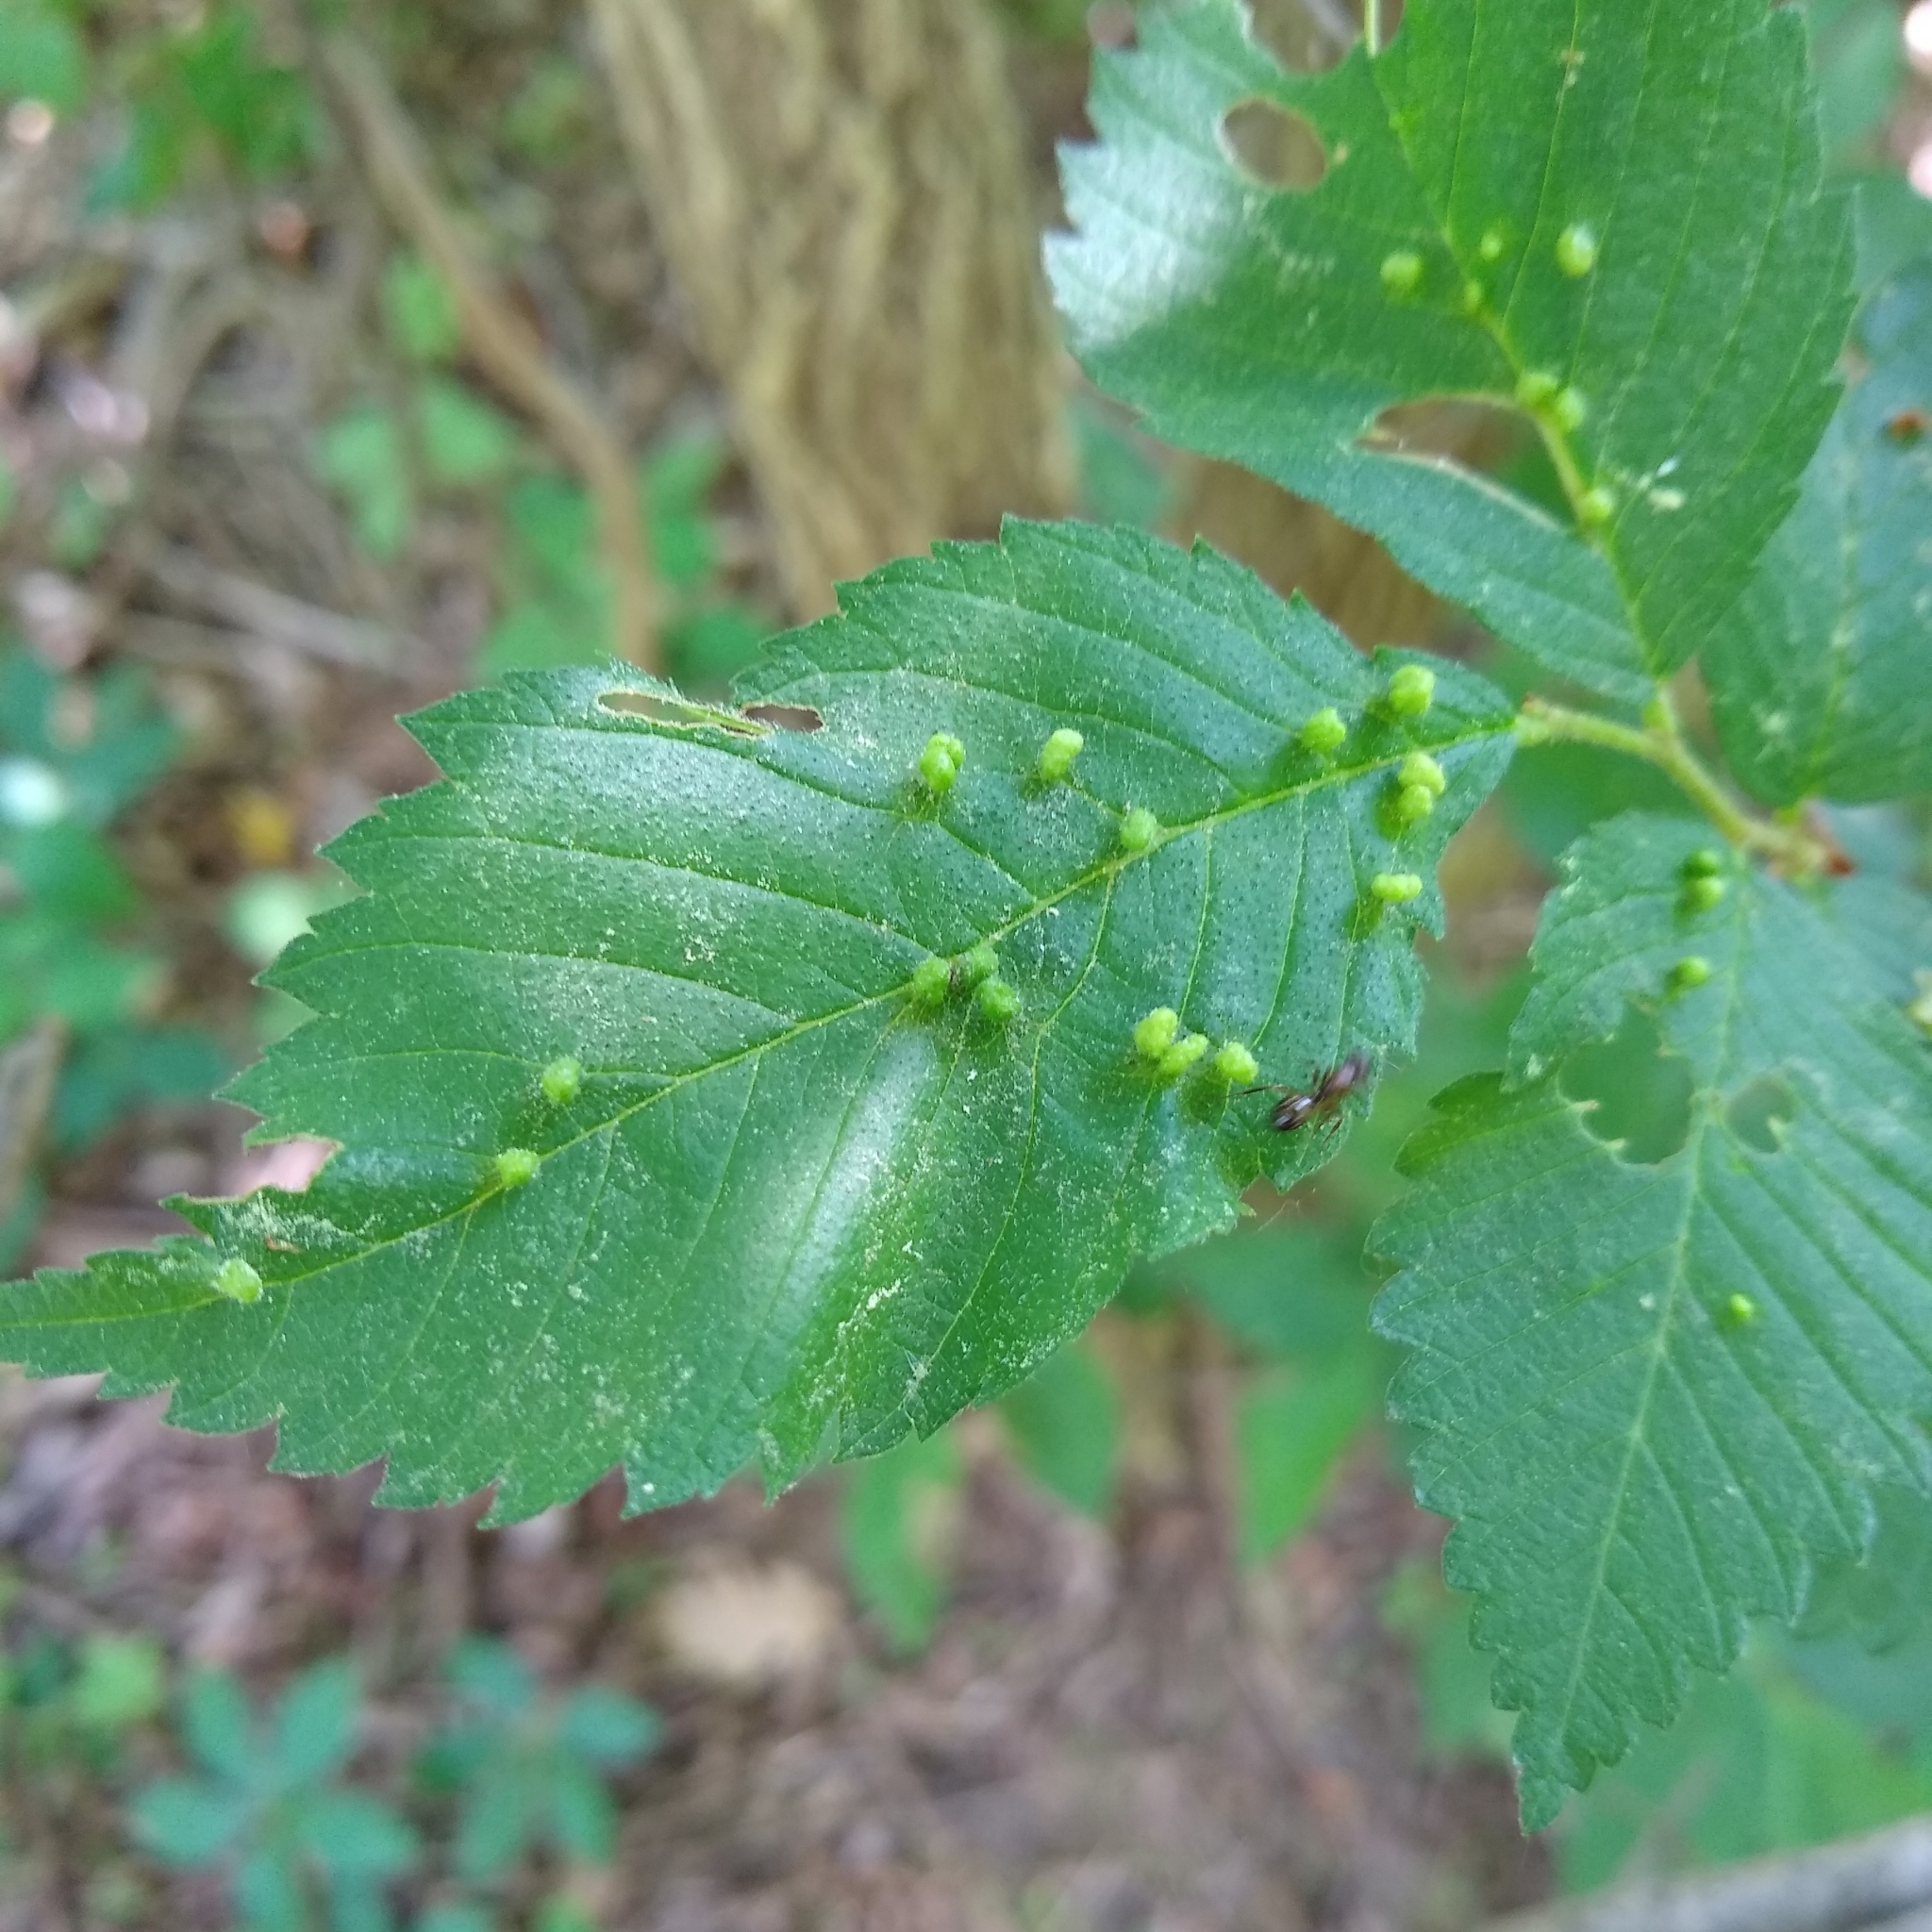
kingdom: Animalia
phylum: Arthropoda
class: Arachnida
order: Trombidiformes
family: Eriophyidae
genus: Aceria
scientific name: Aceria
